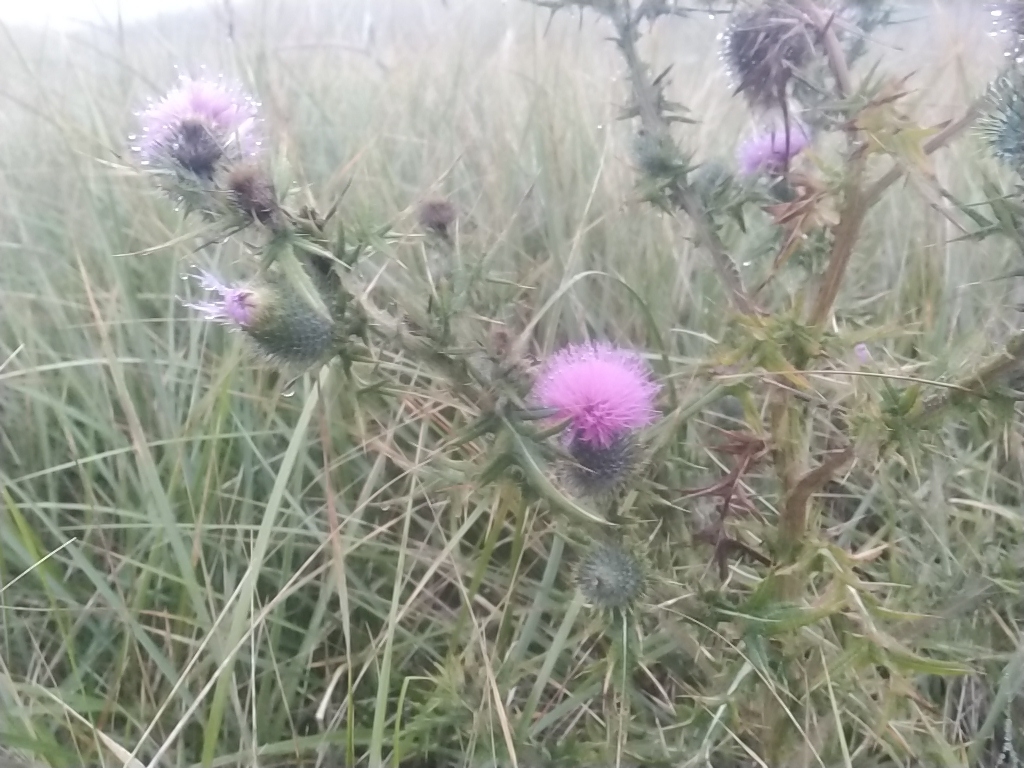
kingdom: Plantae
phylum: Tracheophyta
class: Magnoliopsida
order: Asterales
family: Asteraceae
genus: Cirsium
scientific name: Cirsium vulgare
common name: Bull thistle
